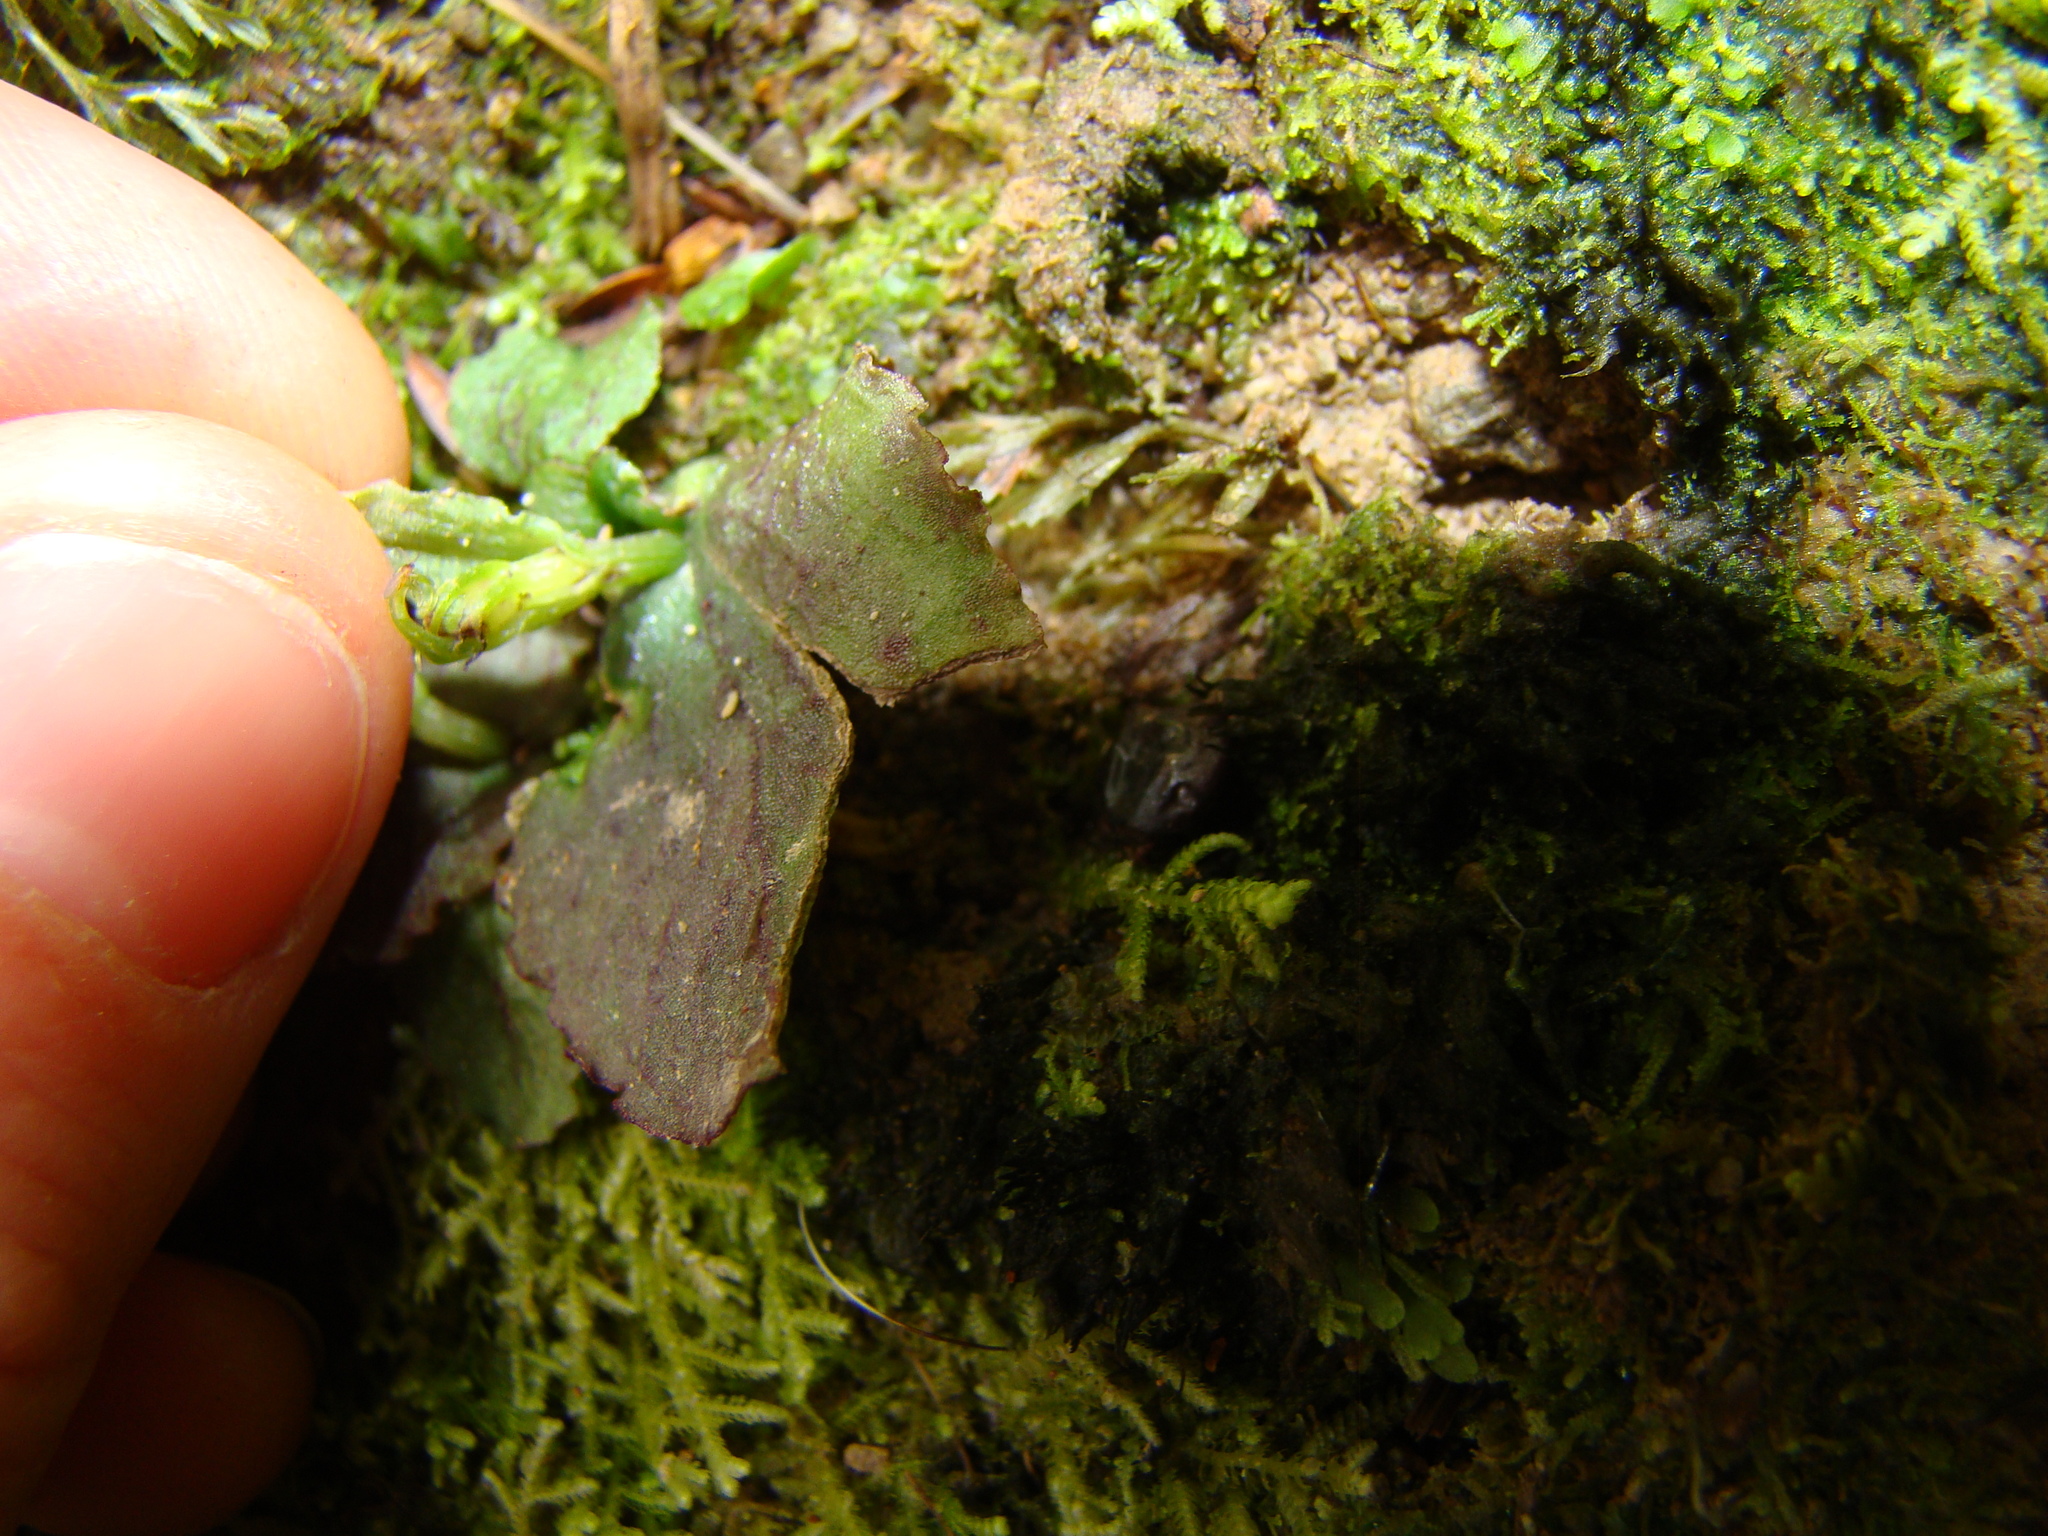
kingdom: Plantae
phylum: Tracheophyta
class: Liliopsida
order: Asparagales
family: Orchidaceae
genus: Corybas
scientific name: Corybas oblongus
